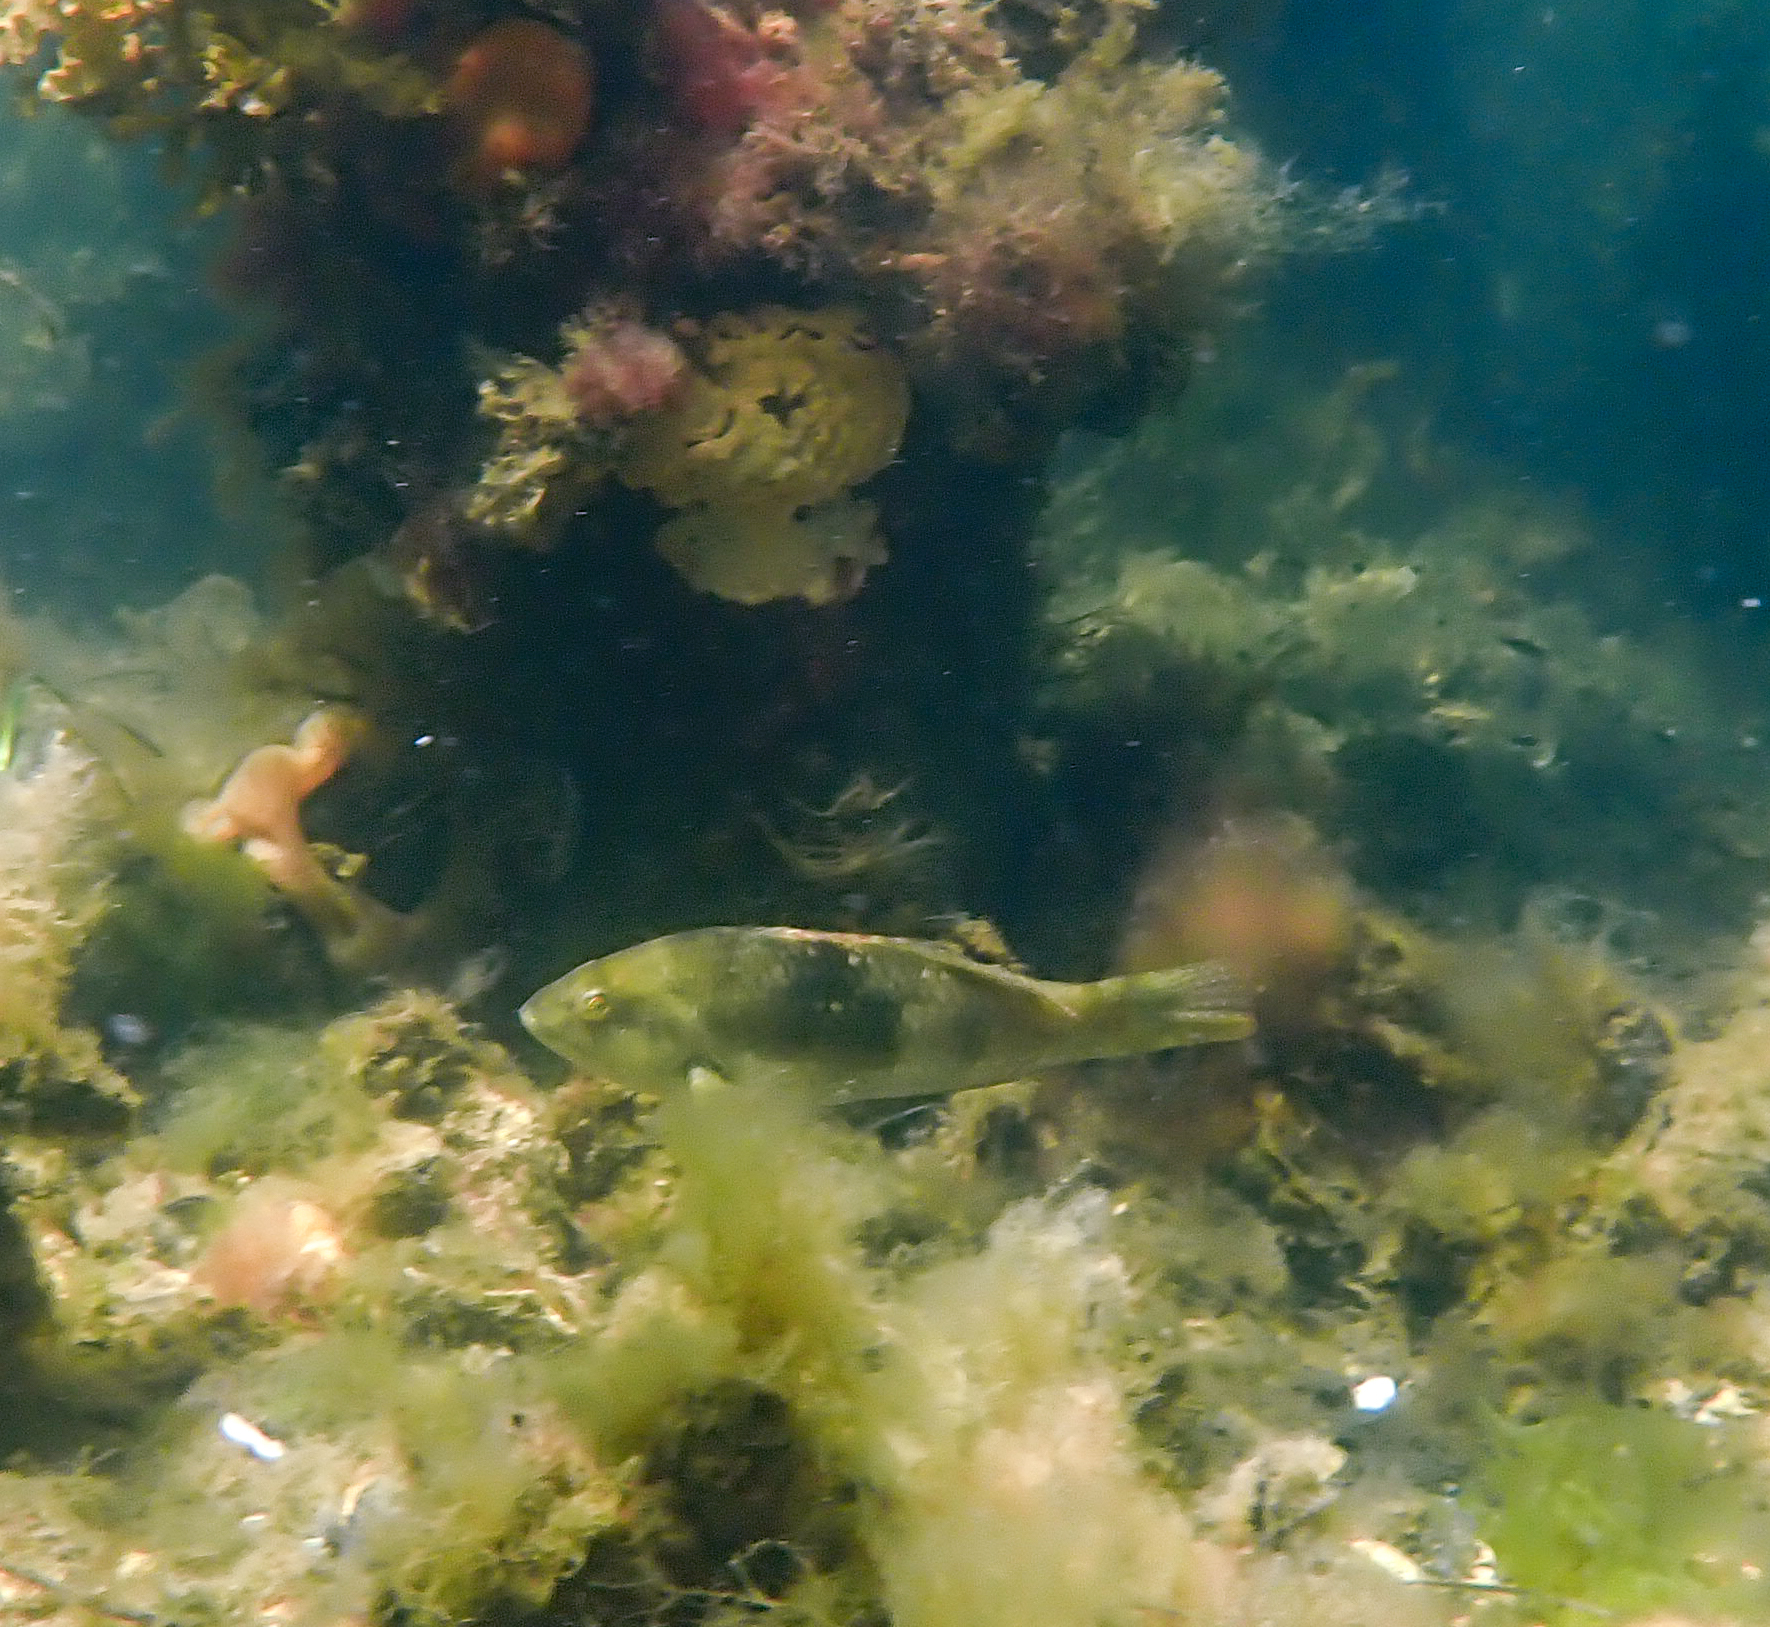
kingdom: Animalia
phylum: Chordata
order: Perciformes
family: Labridae
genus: Notolabrus
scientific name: Notolabrus tetricus
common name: Blue-throated parrotfish
